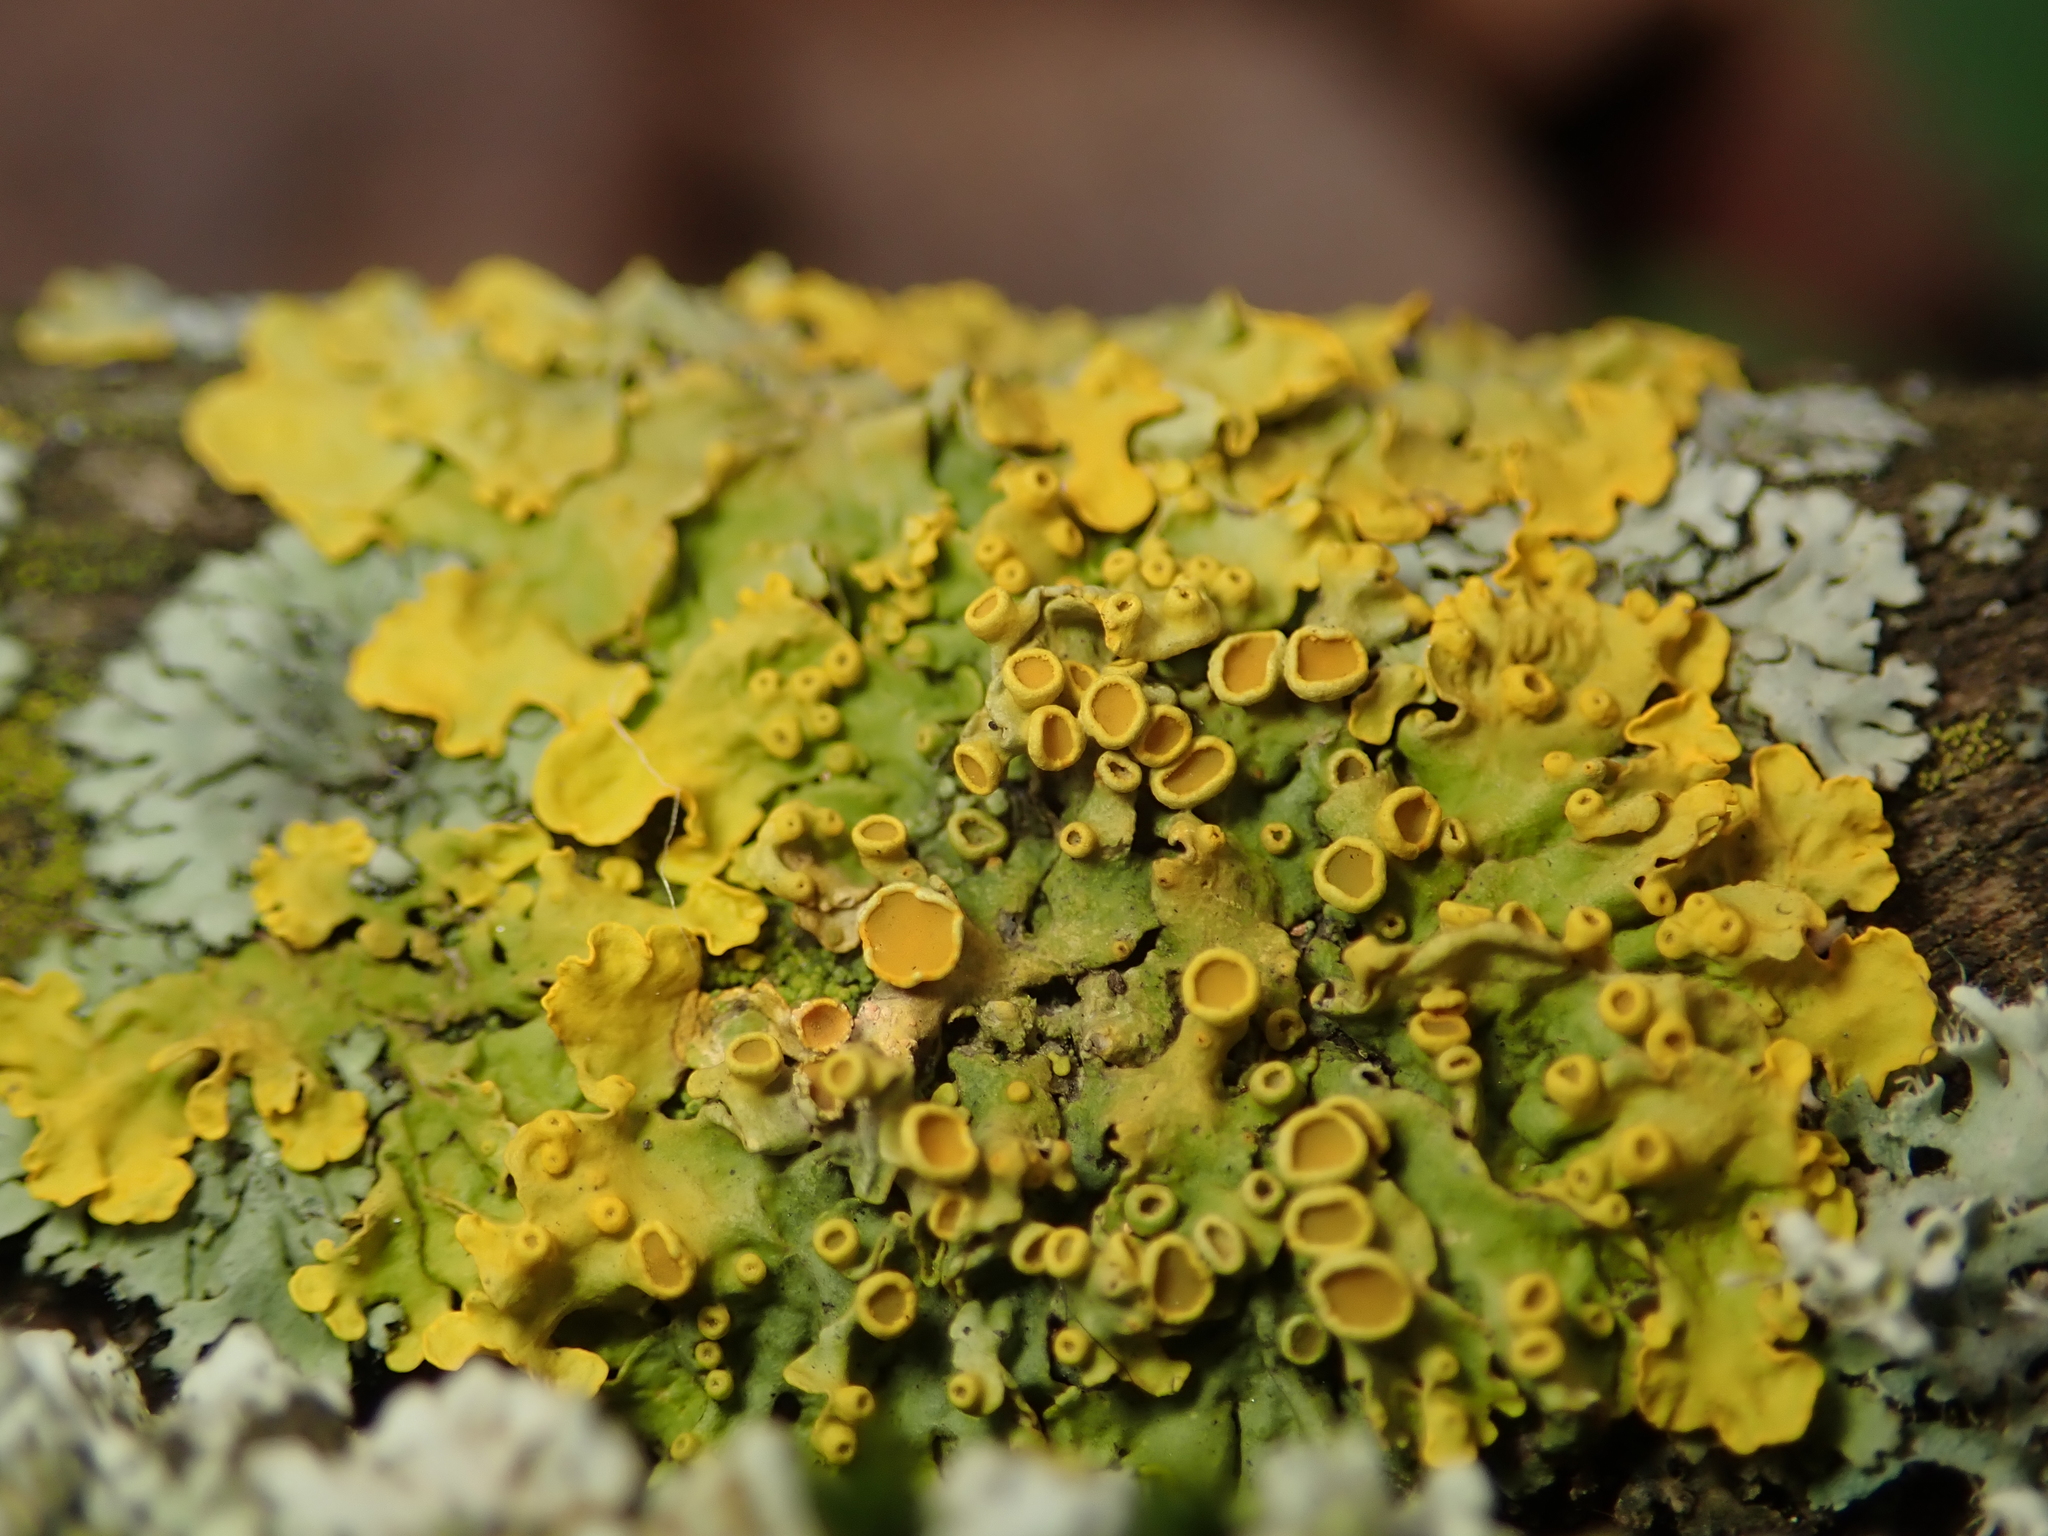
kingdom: Fungi
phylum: Ascomycota
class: Lecanoromycetes
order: Teloschistales
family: Teloschistaceae
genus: Xanthoria
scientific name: Xanthoria parietina
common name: Common orange lichen
